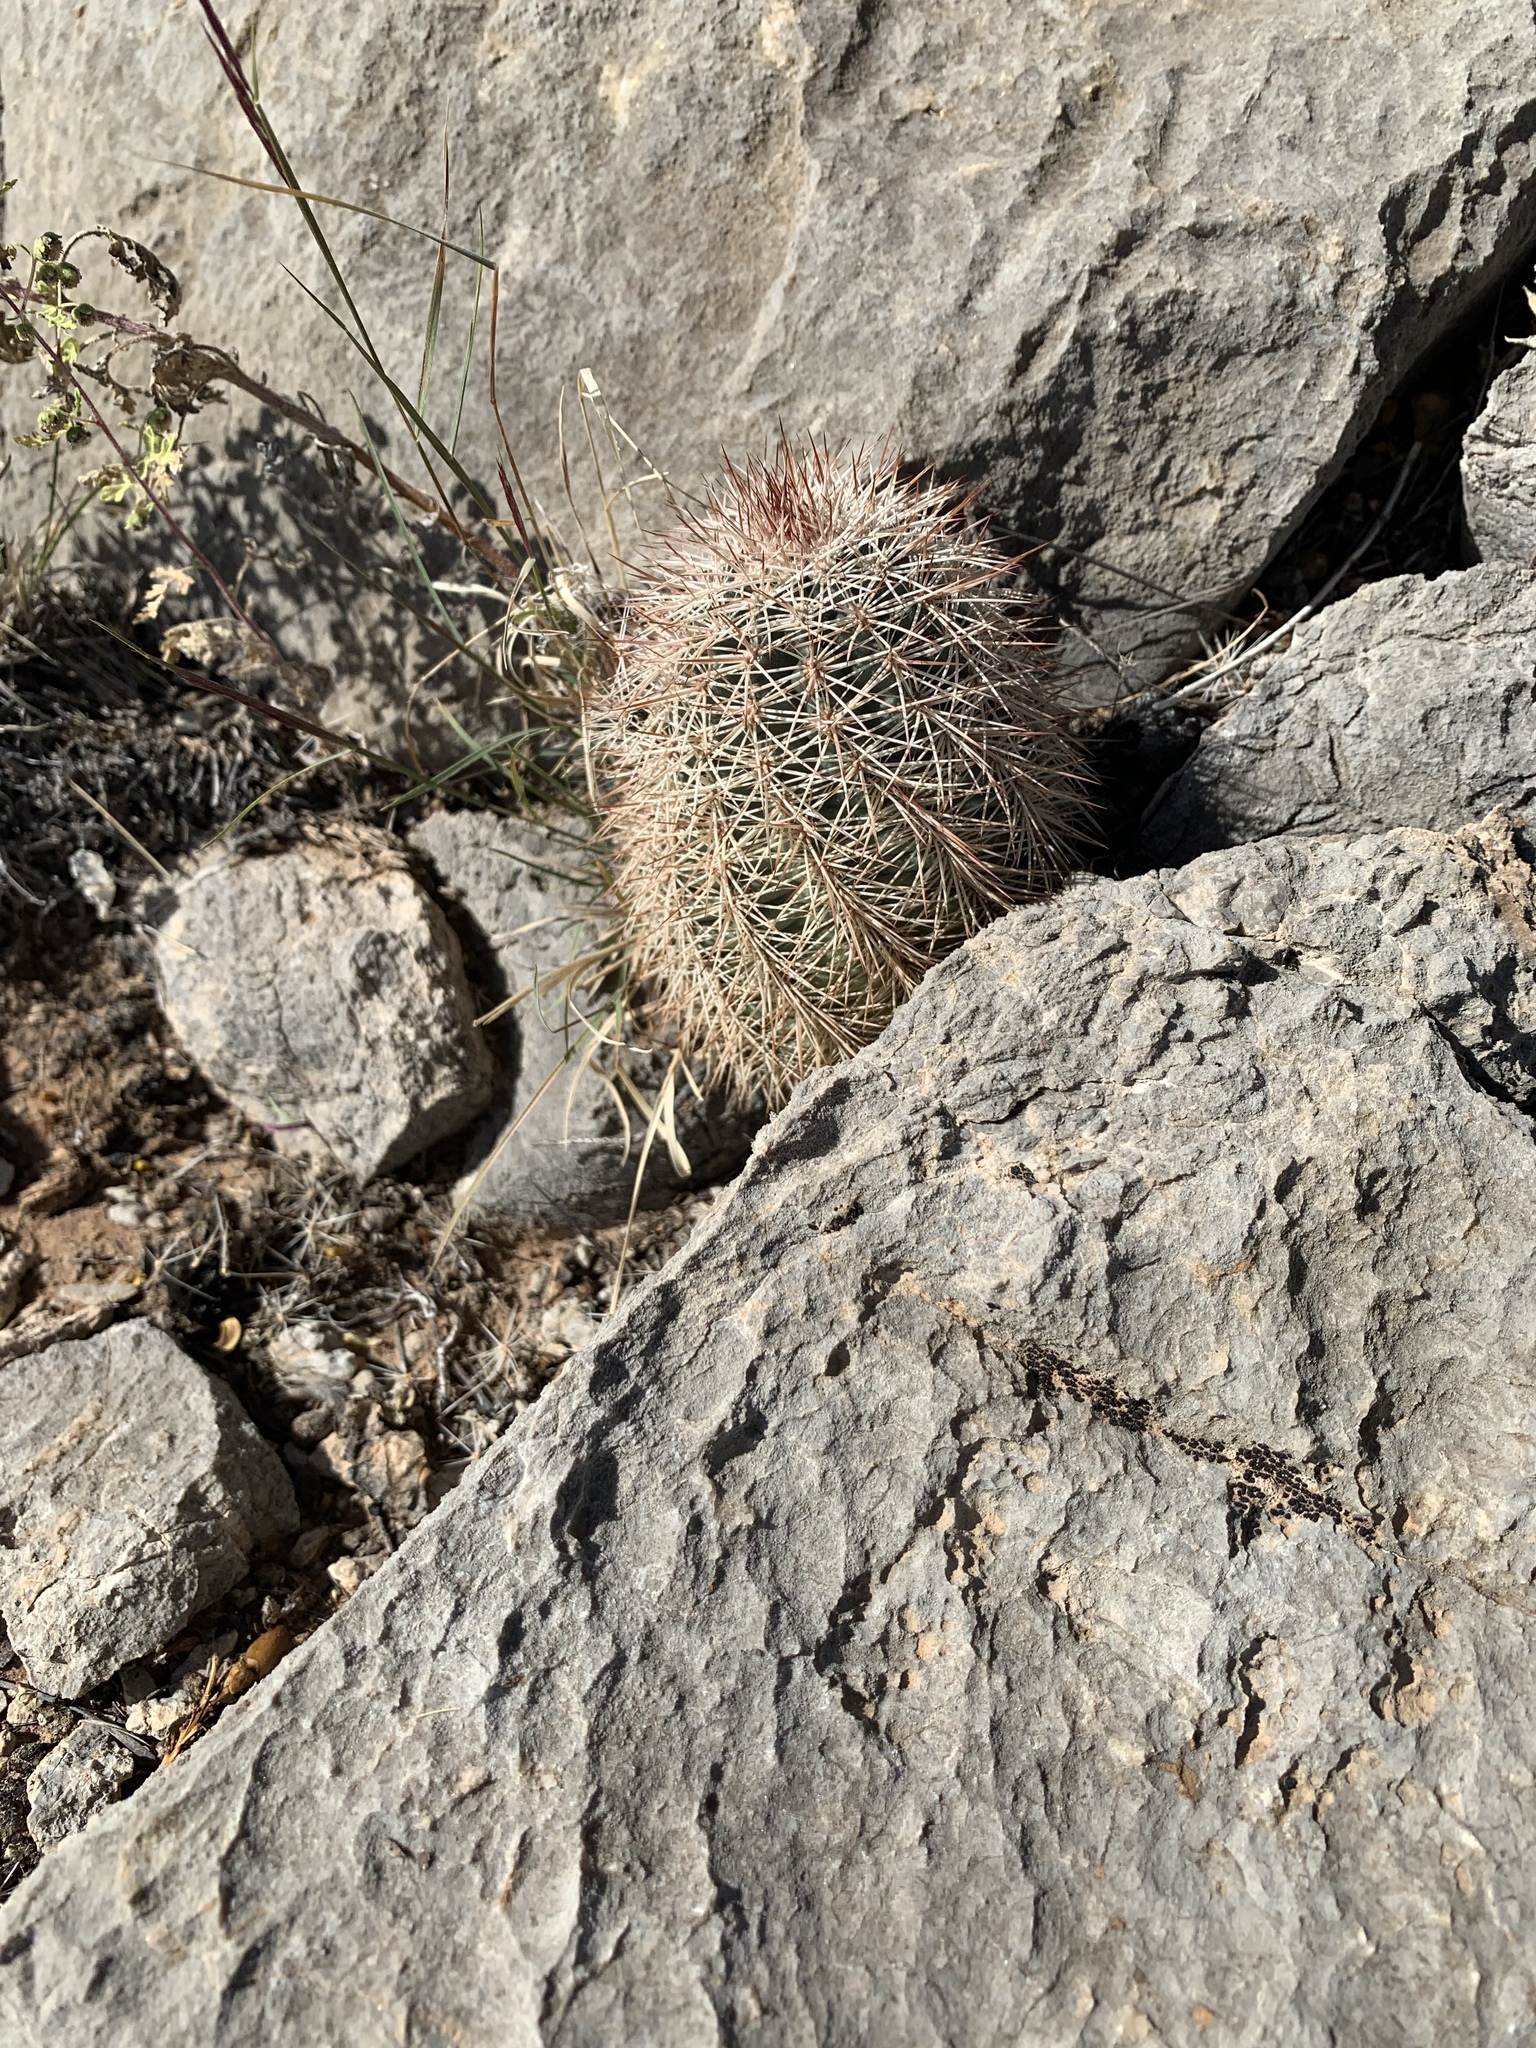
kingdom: Plantae
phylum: Tracheophyta
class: Magnoliopsida
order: Caryophyllales
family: Cactaceae
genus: Echinocereus
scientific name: Echinocereus dasyacanthus
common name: Spiny hedgehog cactus
